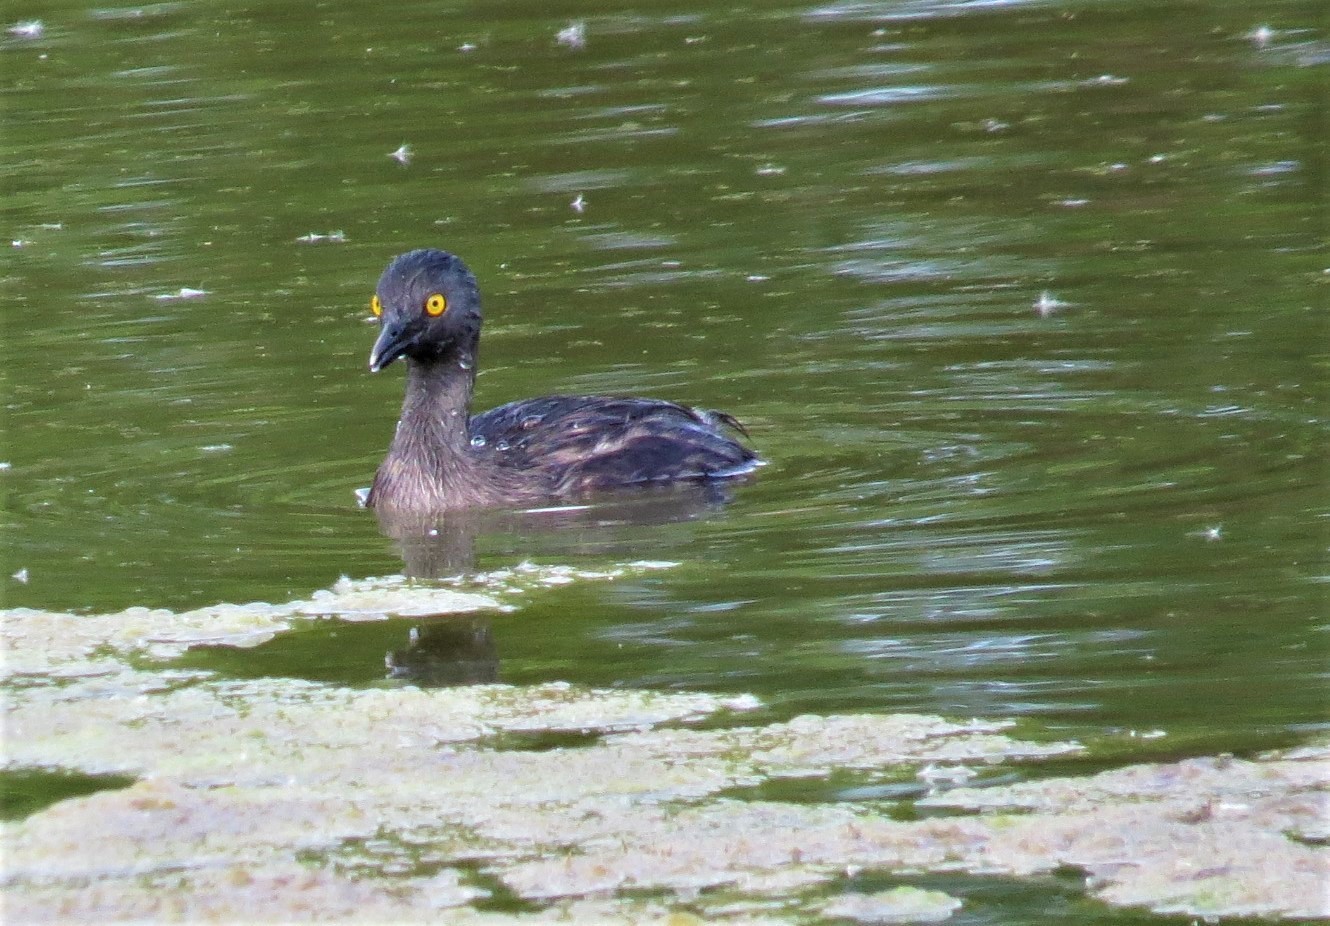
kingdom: Animalia
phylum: Chordata
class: Aves
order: Podicipediformes
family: Podicipedidae
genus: Tachybaptus
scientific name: Tachybaptus dominicus
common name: Least grebe
